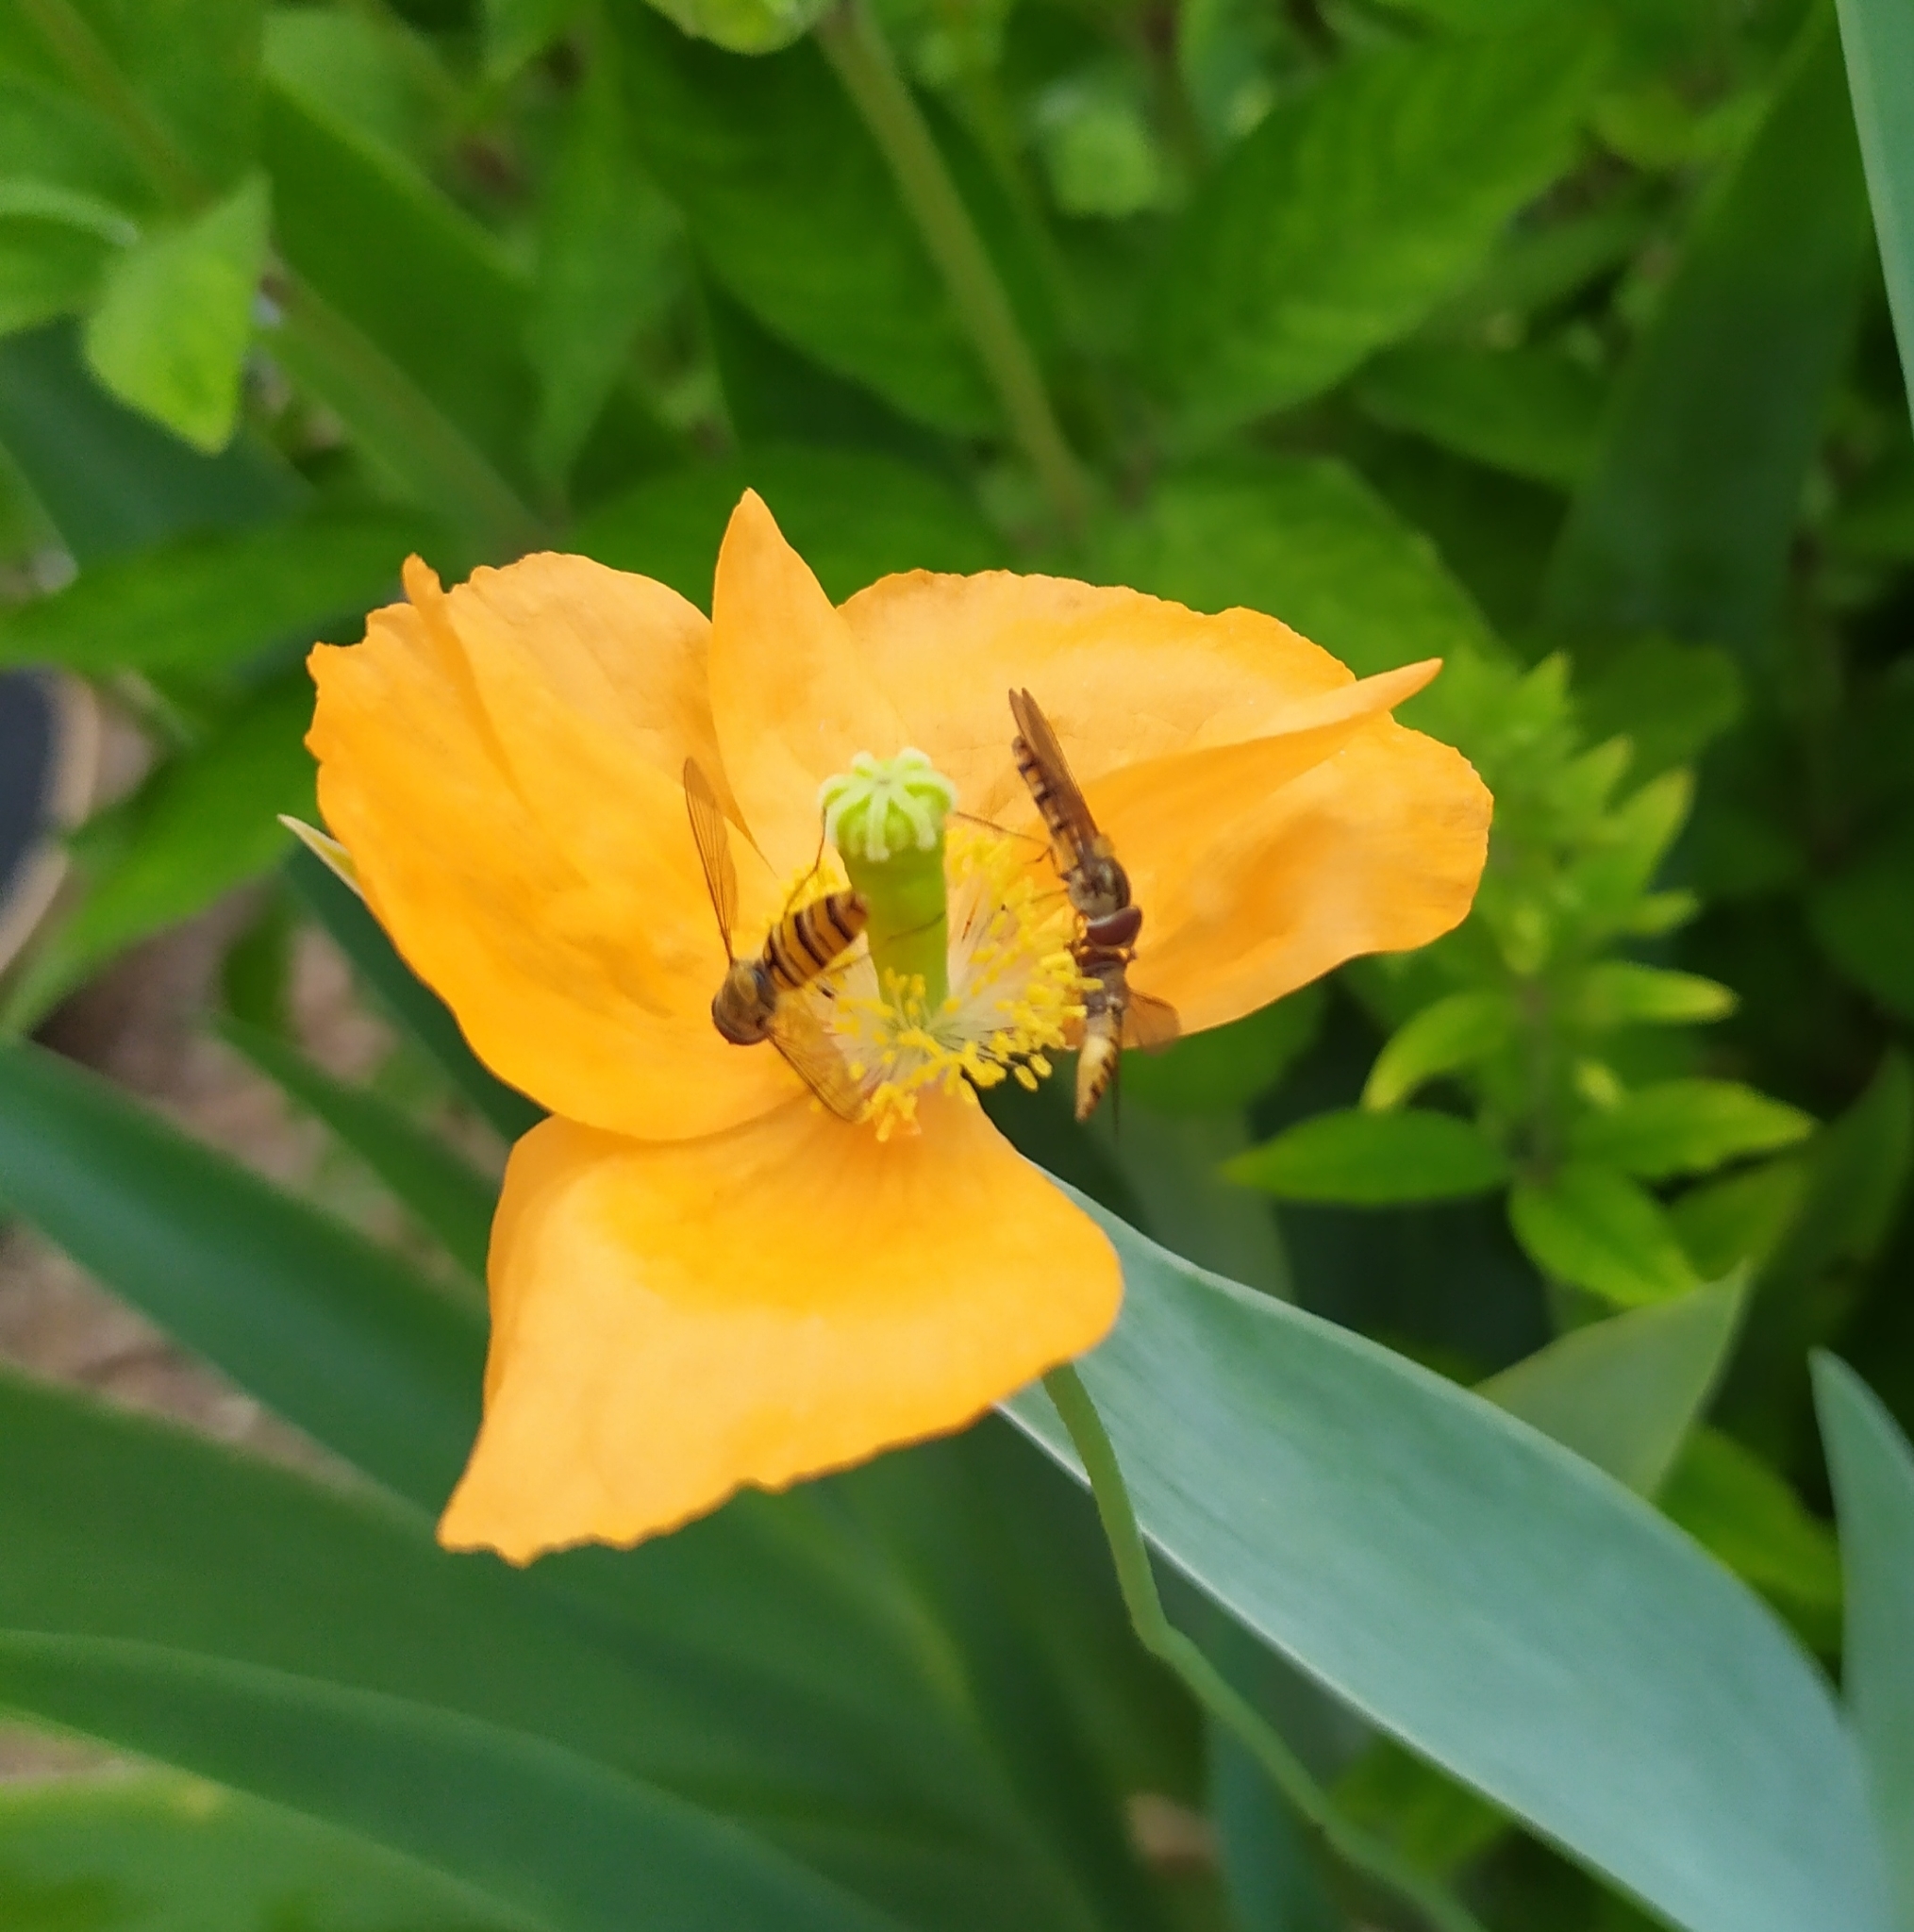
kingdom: Animalia
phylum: Arthropoda
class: Insecta
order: Diptera
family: Syrphidae
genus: Episyrphus
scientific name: Episyrphus balteatus
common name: Marmalade hoverfly
